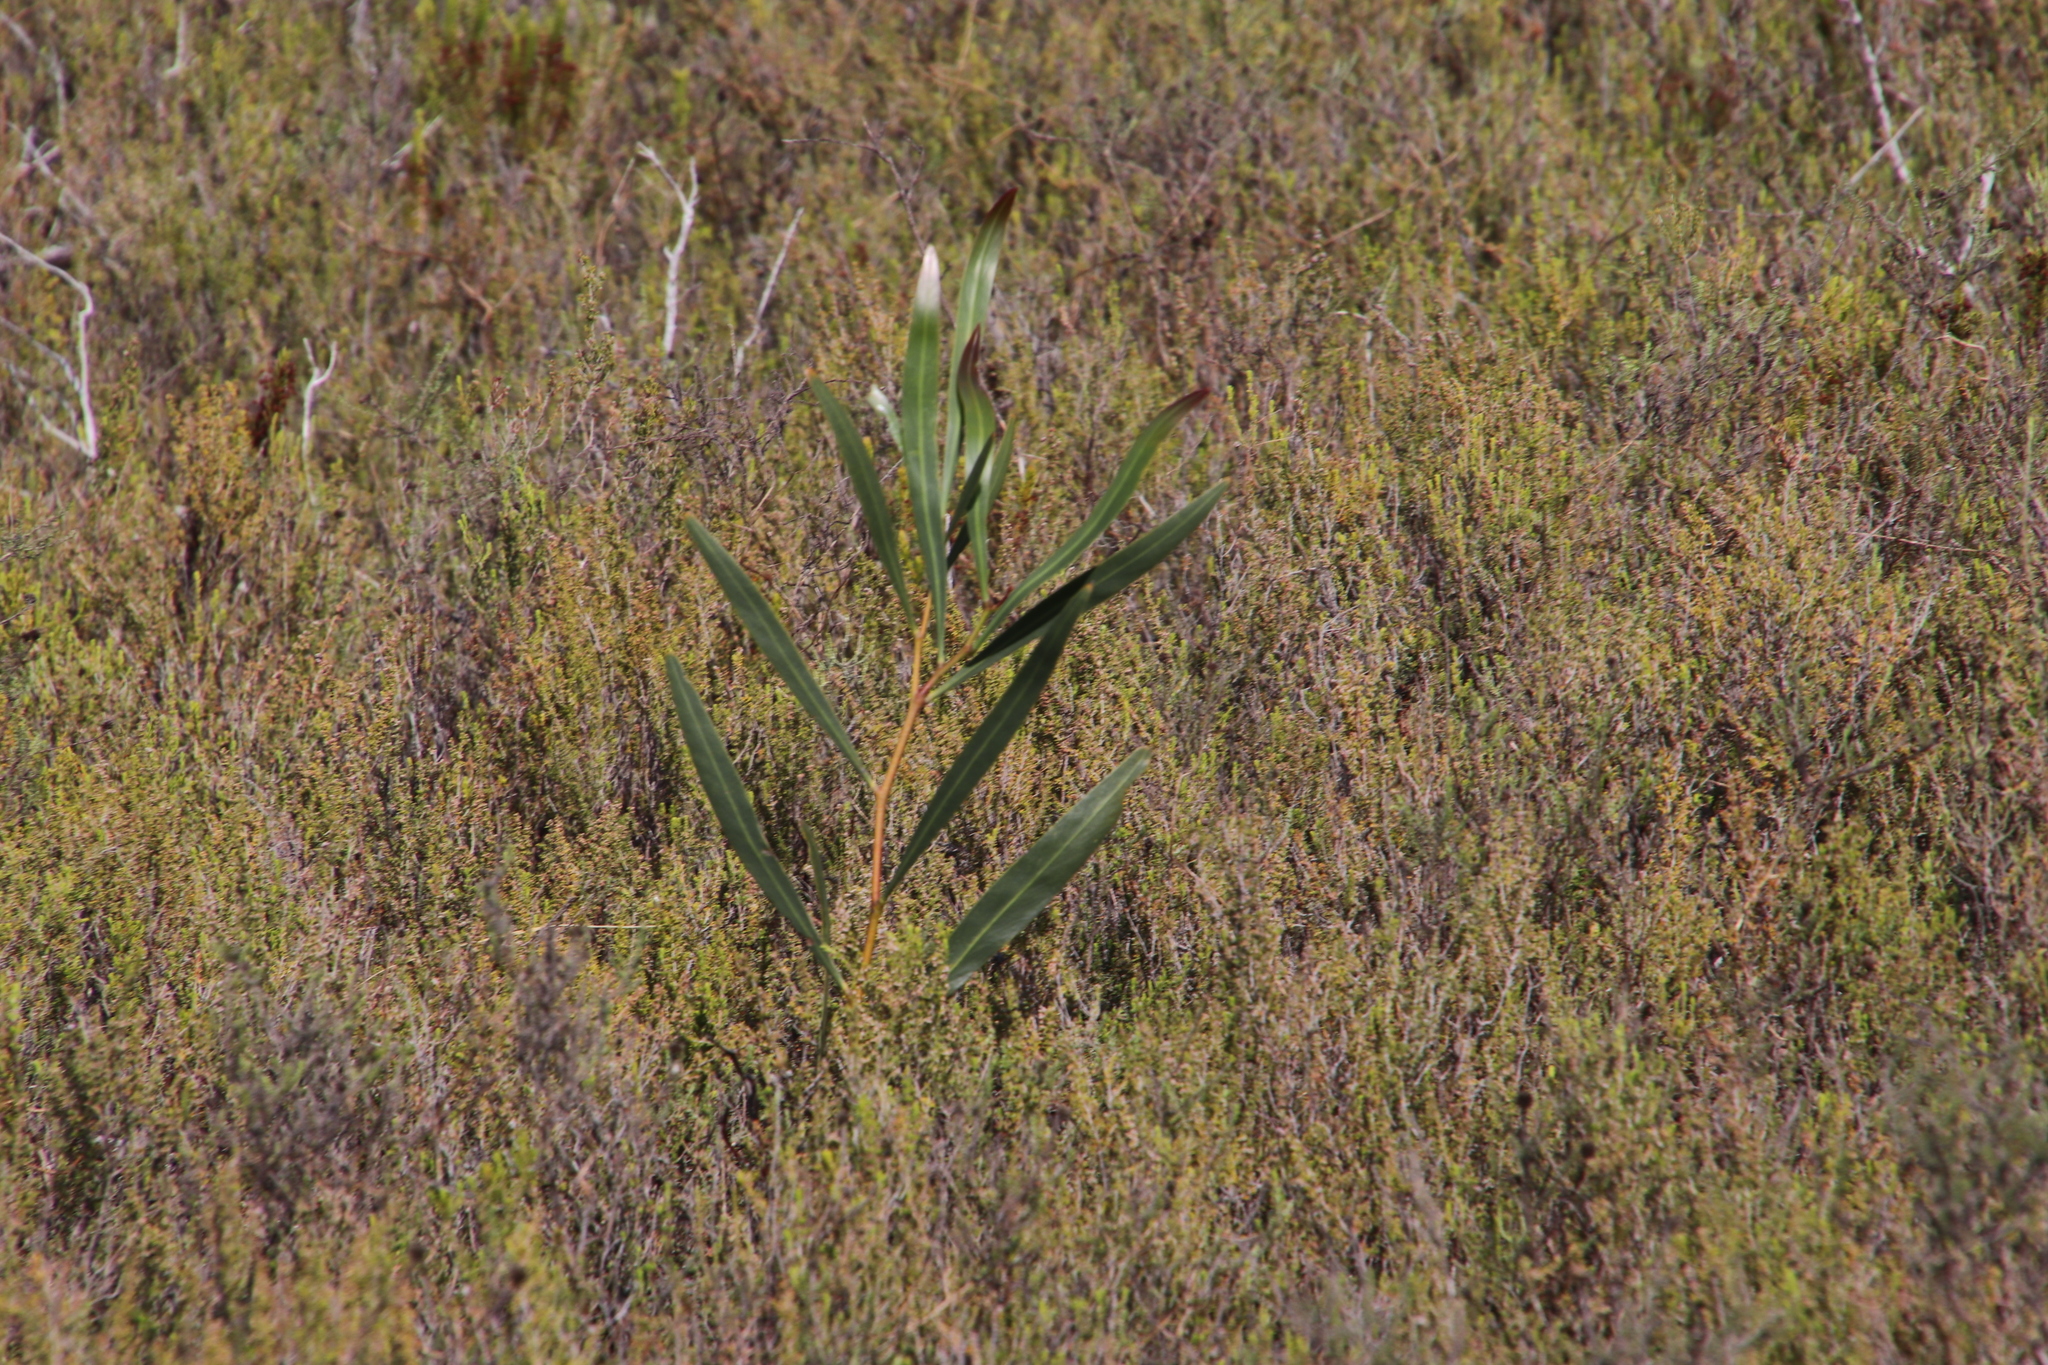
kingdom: Plantae
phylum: Tracheophyta
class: Magnoliopsida
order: Fabales
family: Fabaceae
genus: Acacia
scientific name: Acacia saligna
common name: Orange wattle
